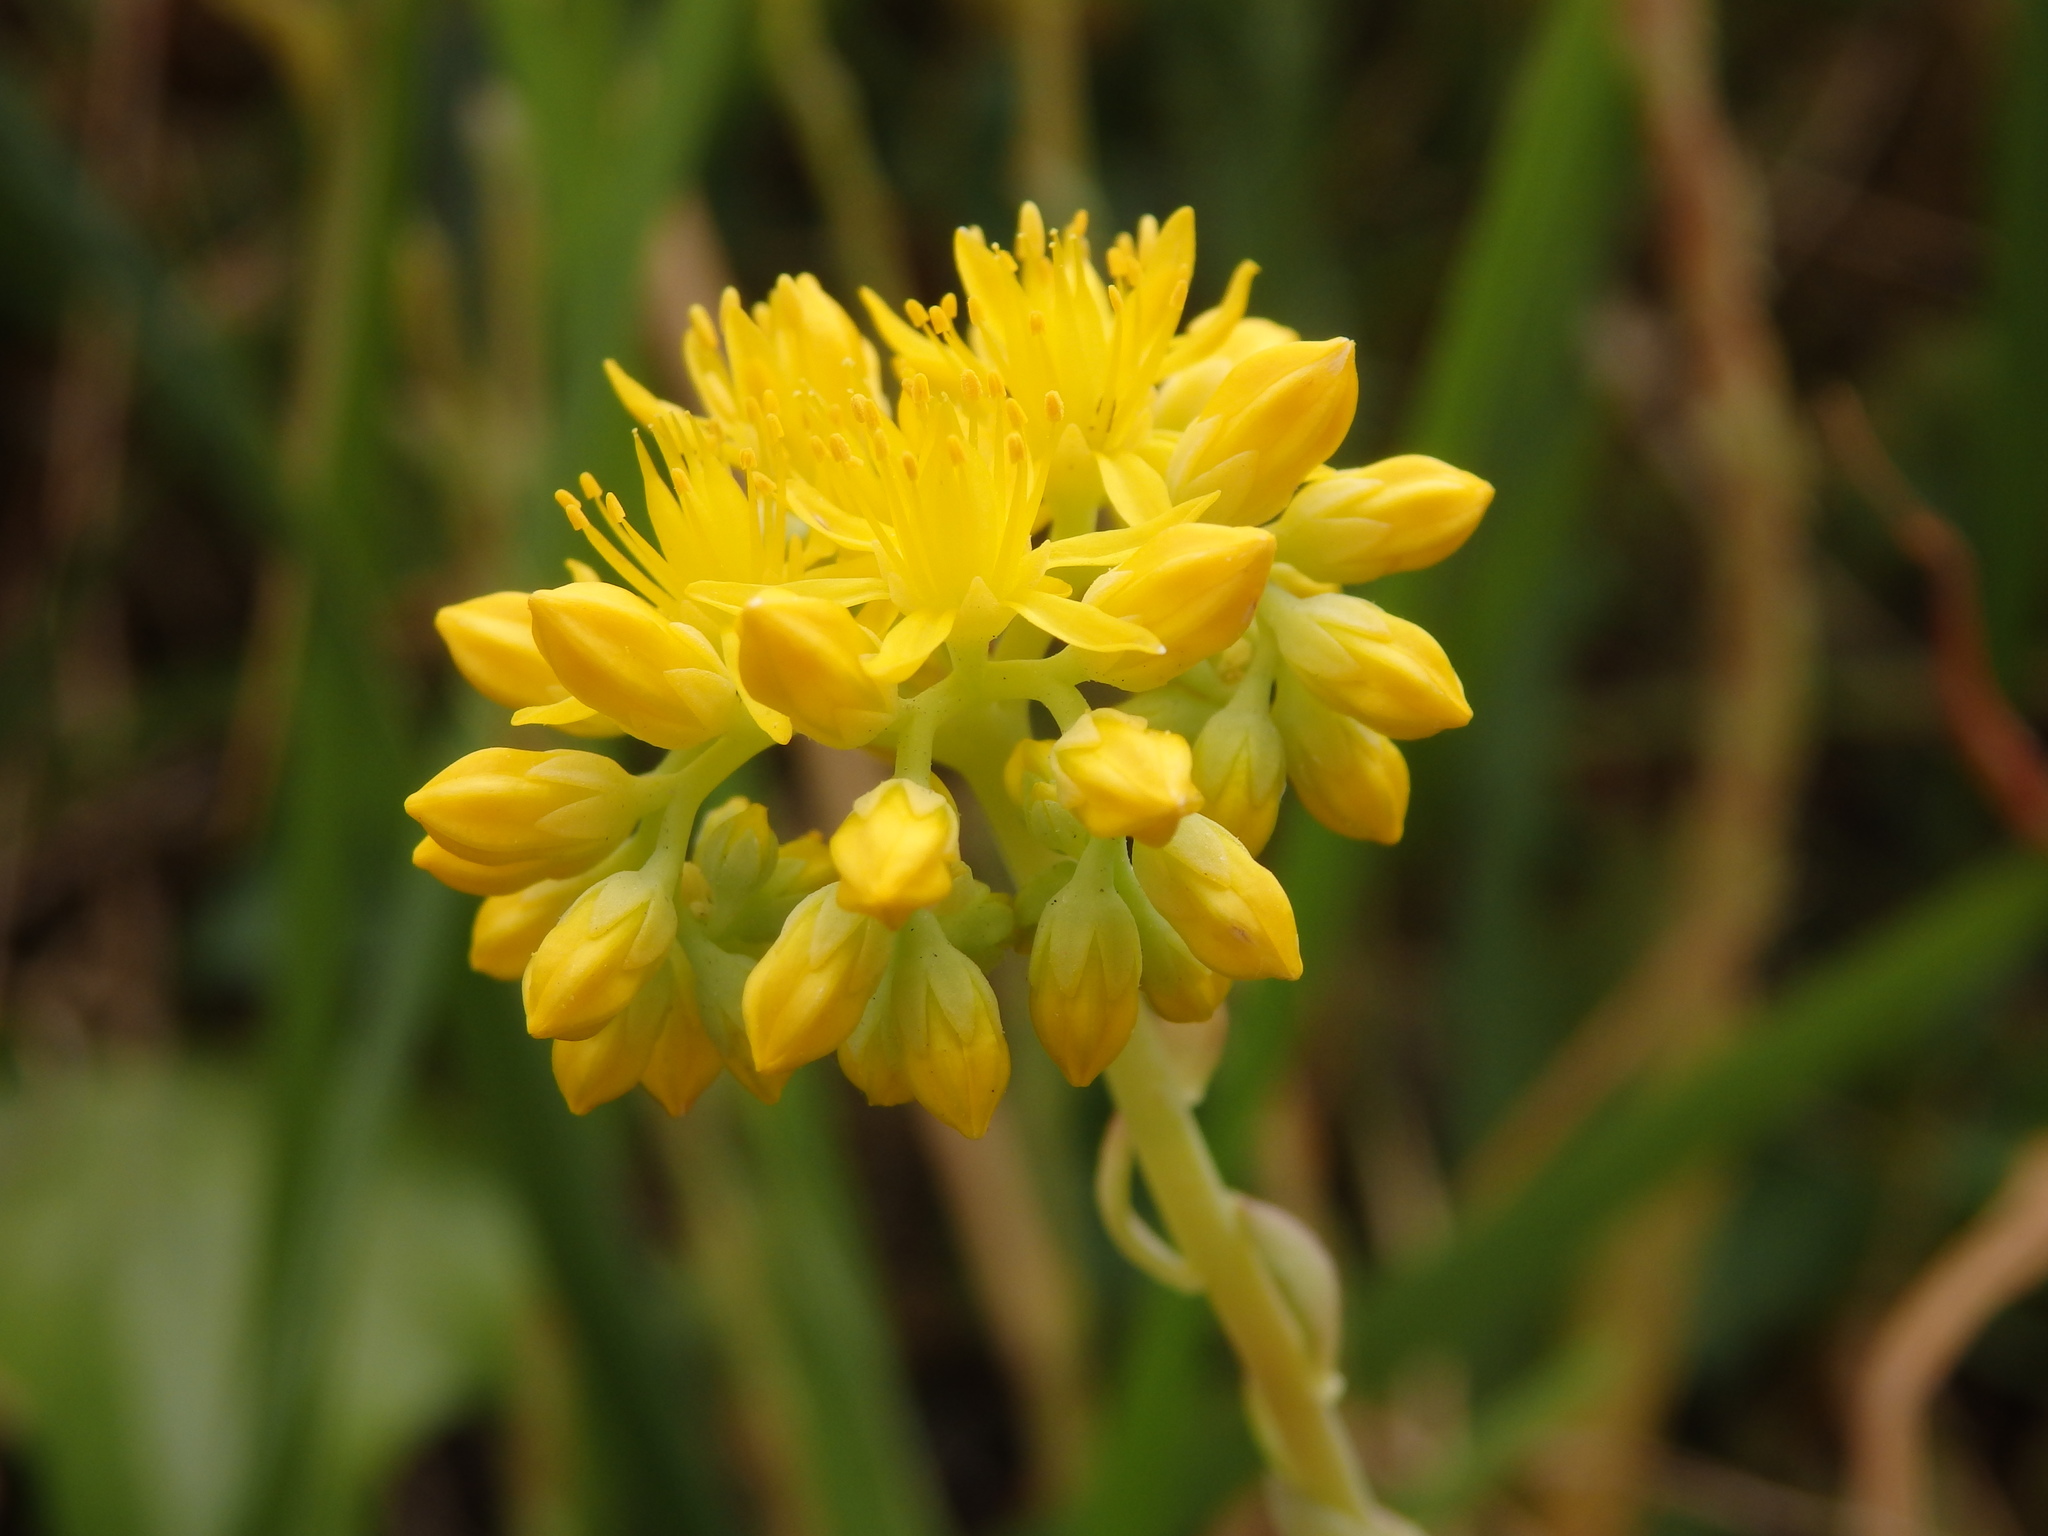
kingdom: Plantae
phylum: Tracheophyta
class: Magnoliopsida
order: Saxifragales
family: Crassulaceae
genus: Petrosedum
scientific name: Petrosedum forsterianum
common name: Forster's stonecrop
